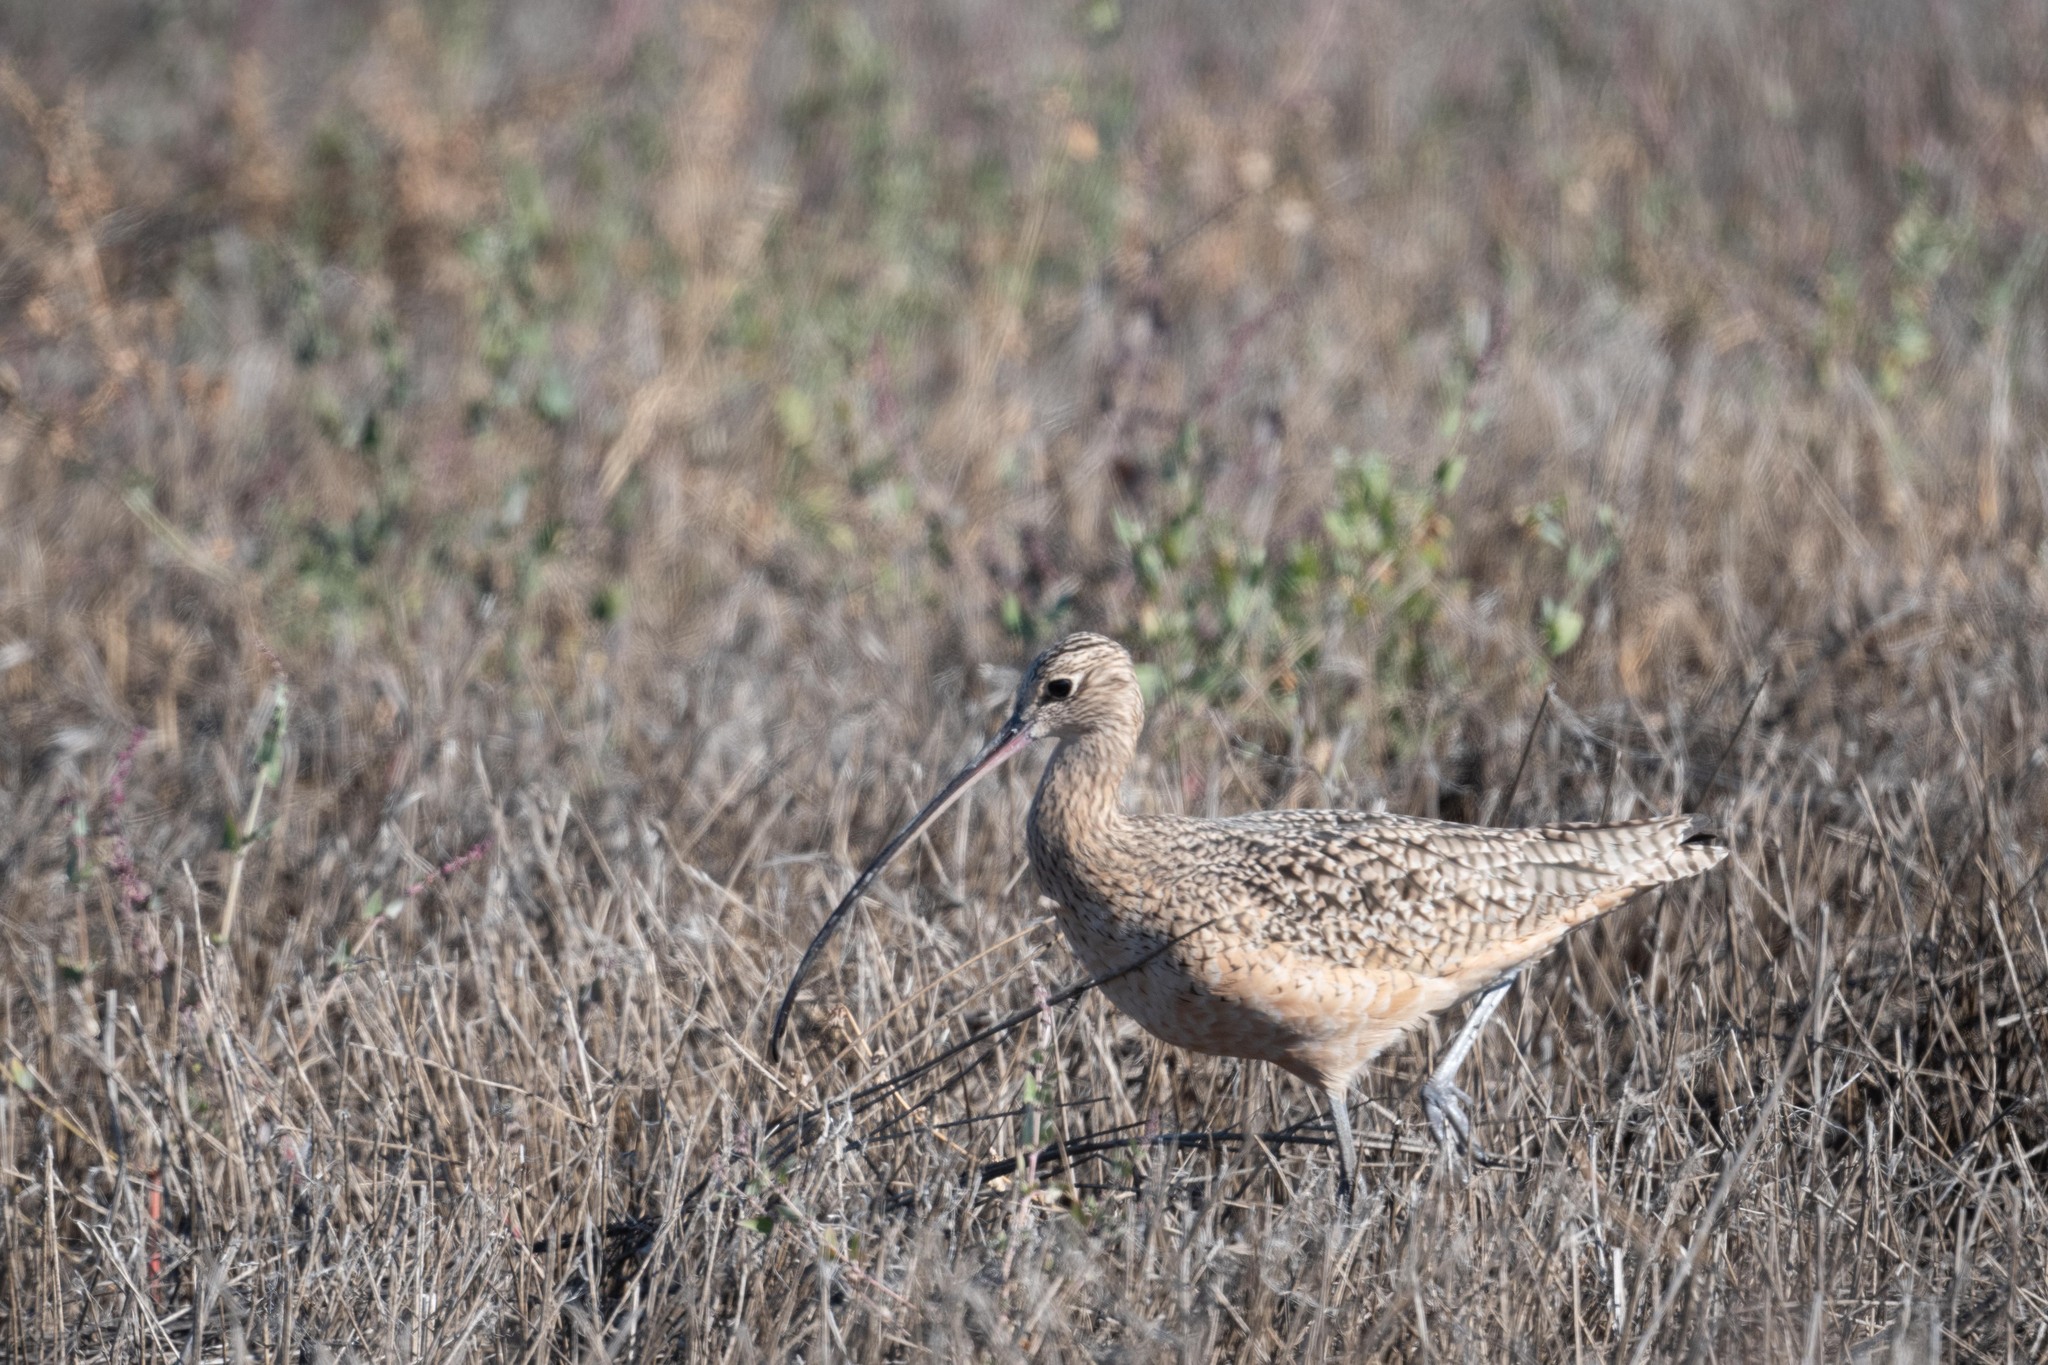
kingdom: Animalia
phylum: Chordata
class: Aves
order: Charadriiformes
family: Scolopacidae
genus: Numenius
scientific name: Numenius americanus
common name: Long-billed curlew
